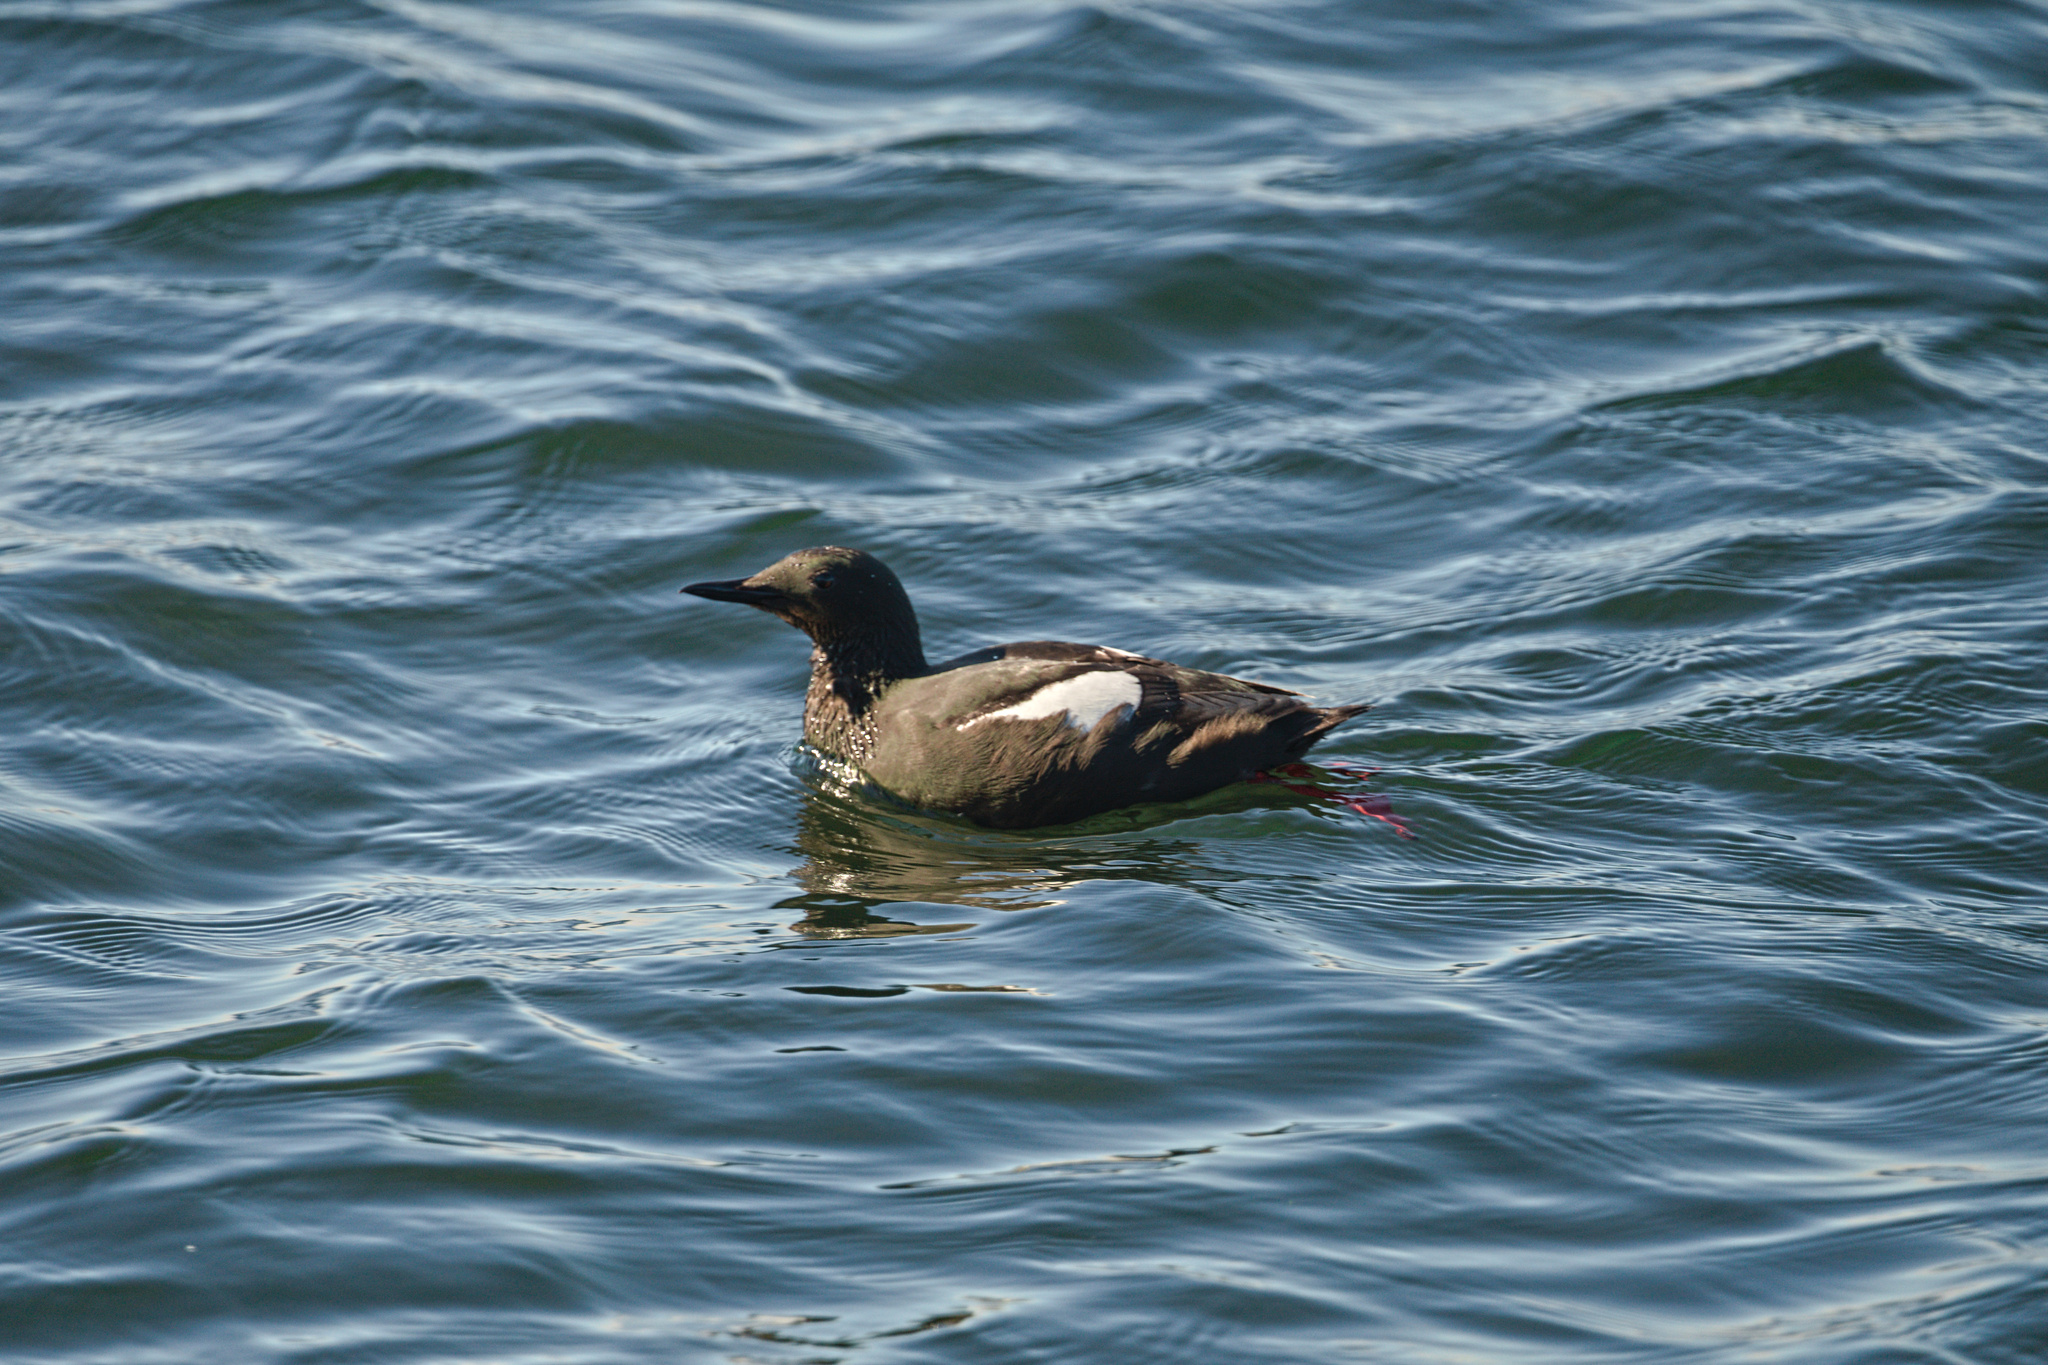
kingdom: Animalia
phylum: Chordata
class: Aves
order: Charadriiformes
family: Alcidae
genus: Cepphus
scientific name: Cepphus grylle
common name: Black guillemot
